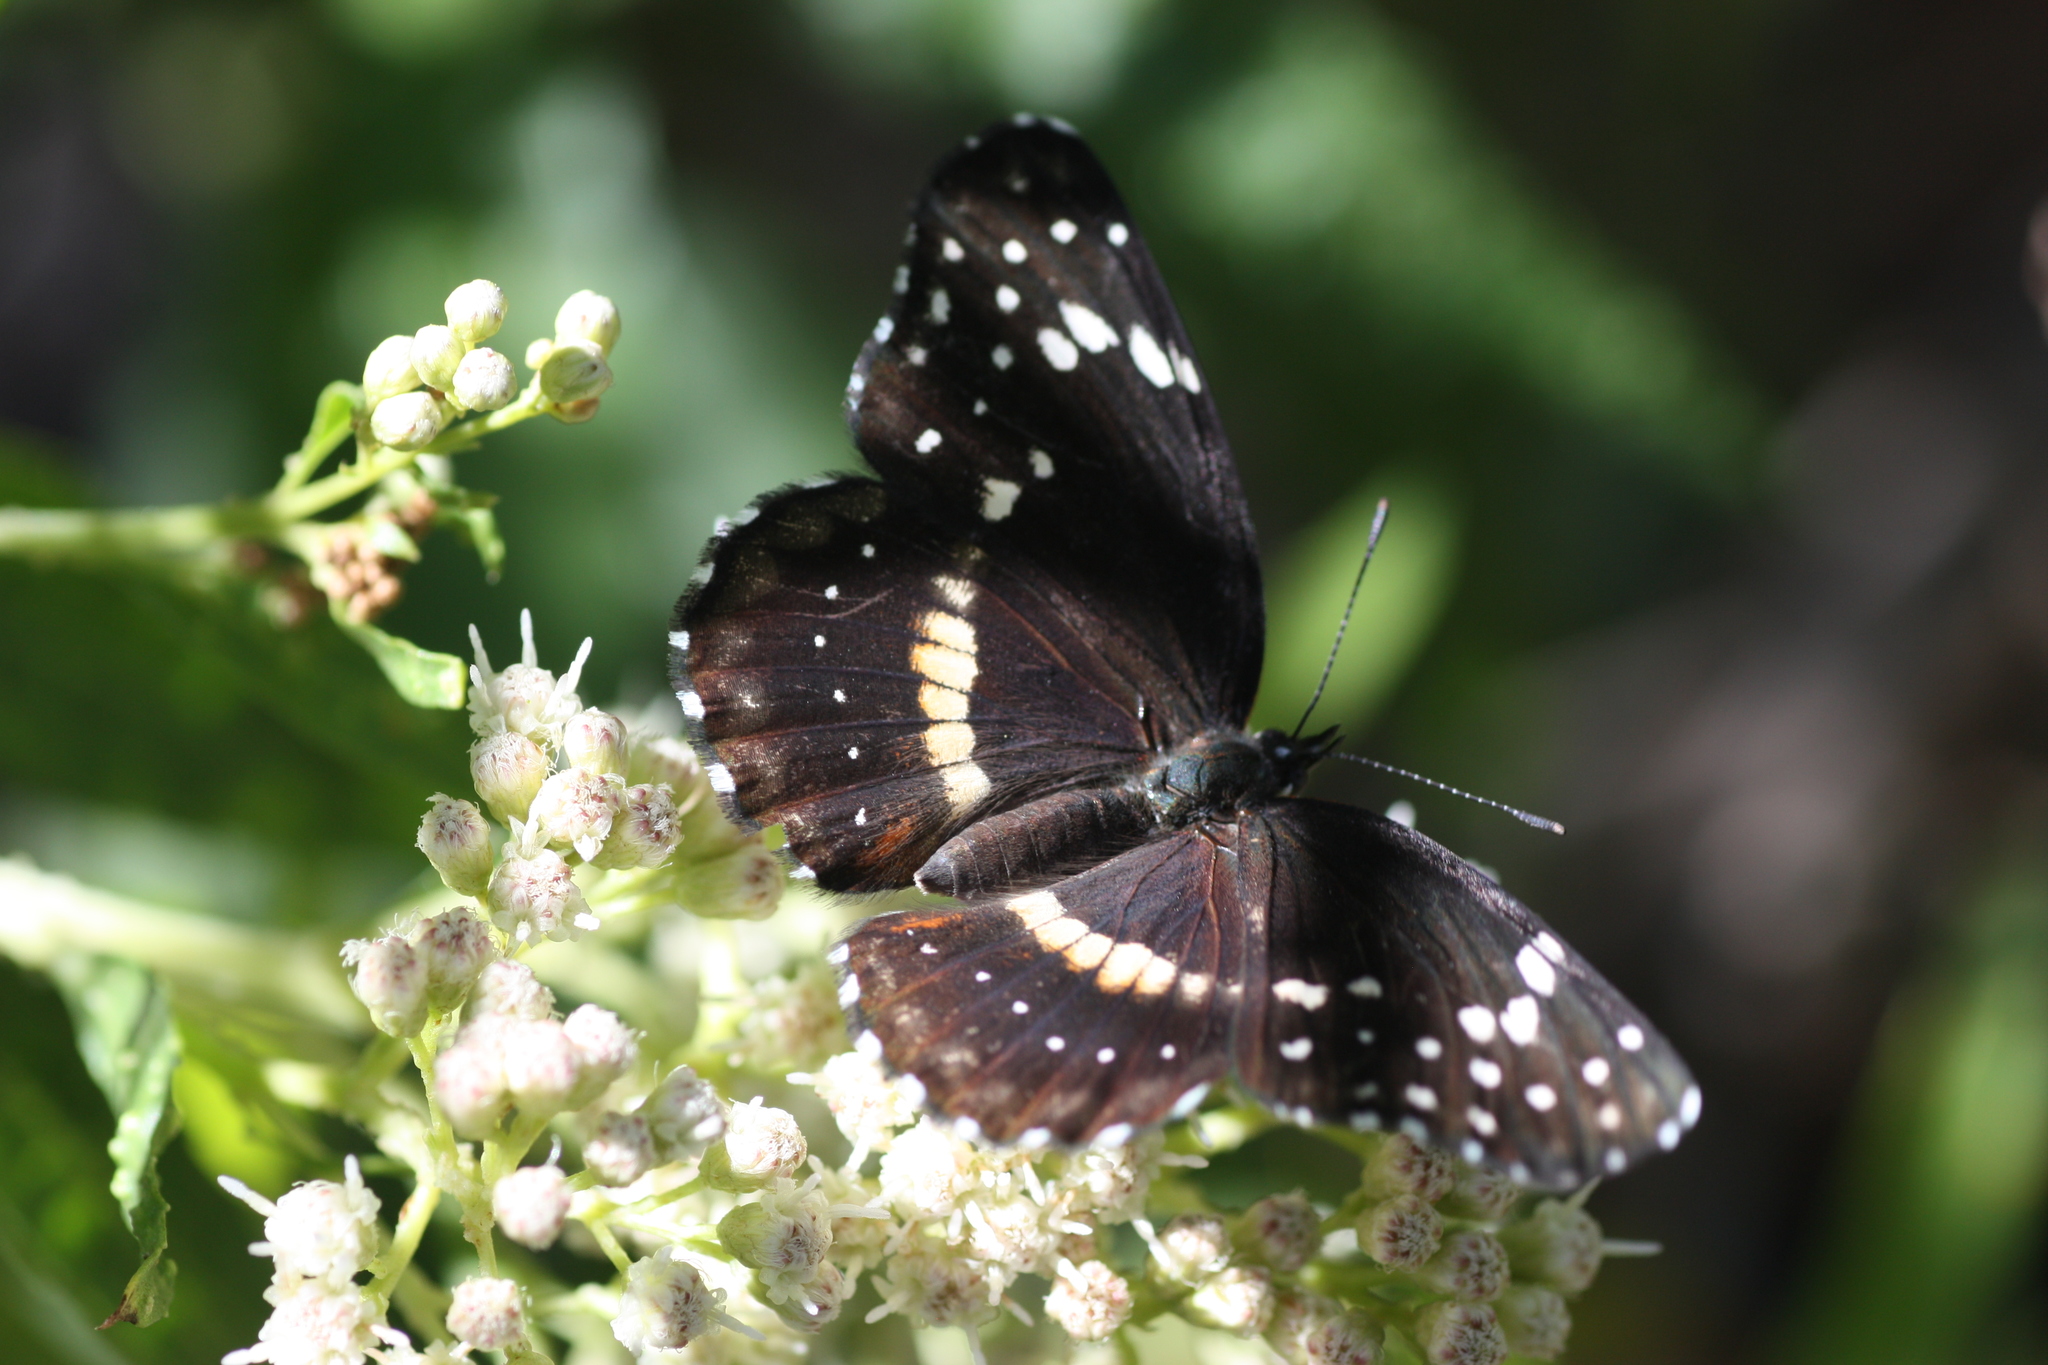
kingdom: Animalia
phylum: Arthropoda
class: Insecta
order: Lepidoptera
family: Nymphalidae
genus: Chlosyne
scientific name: Chlosyne lacinia
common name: Bordered patch
